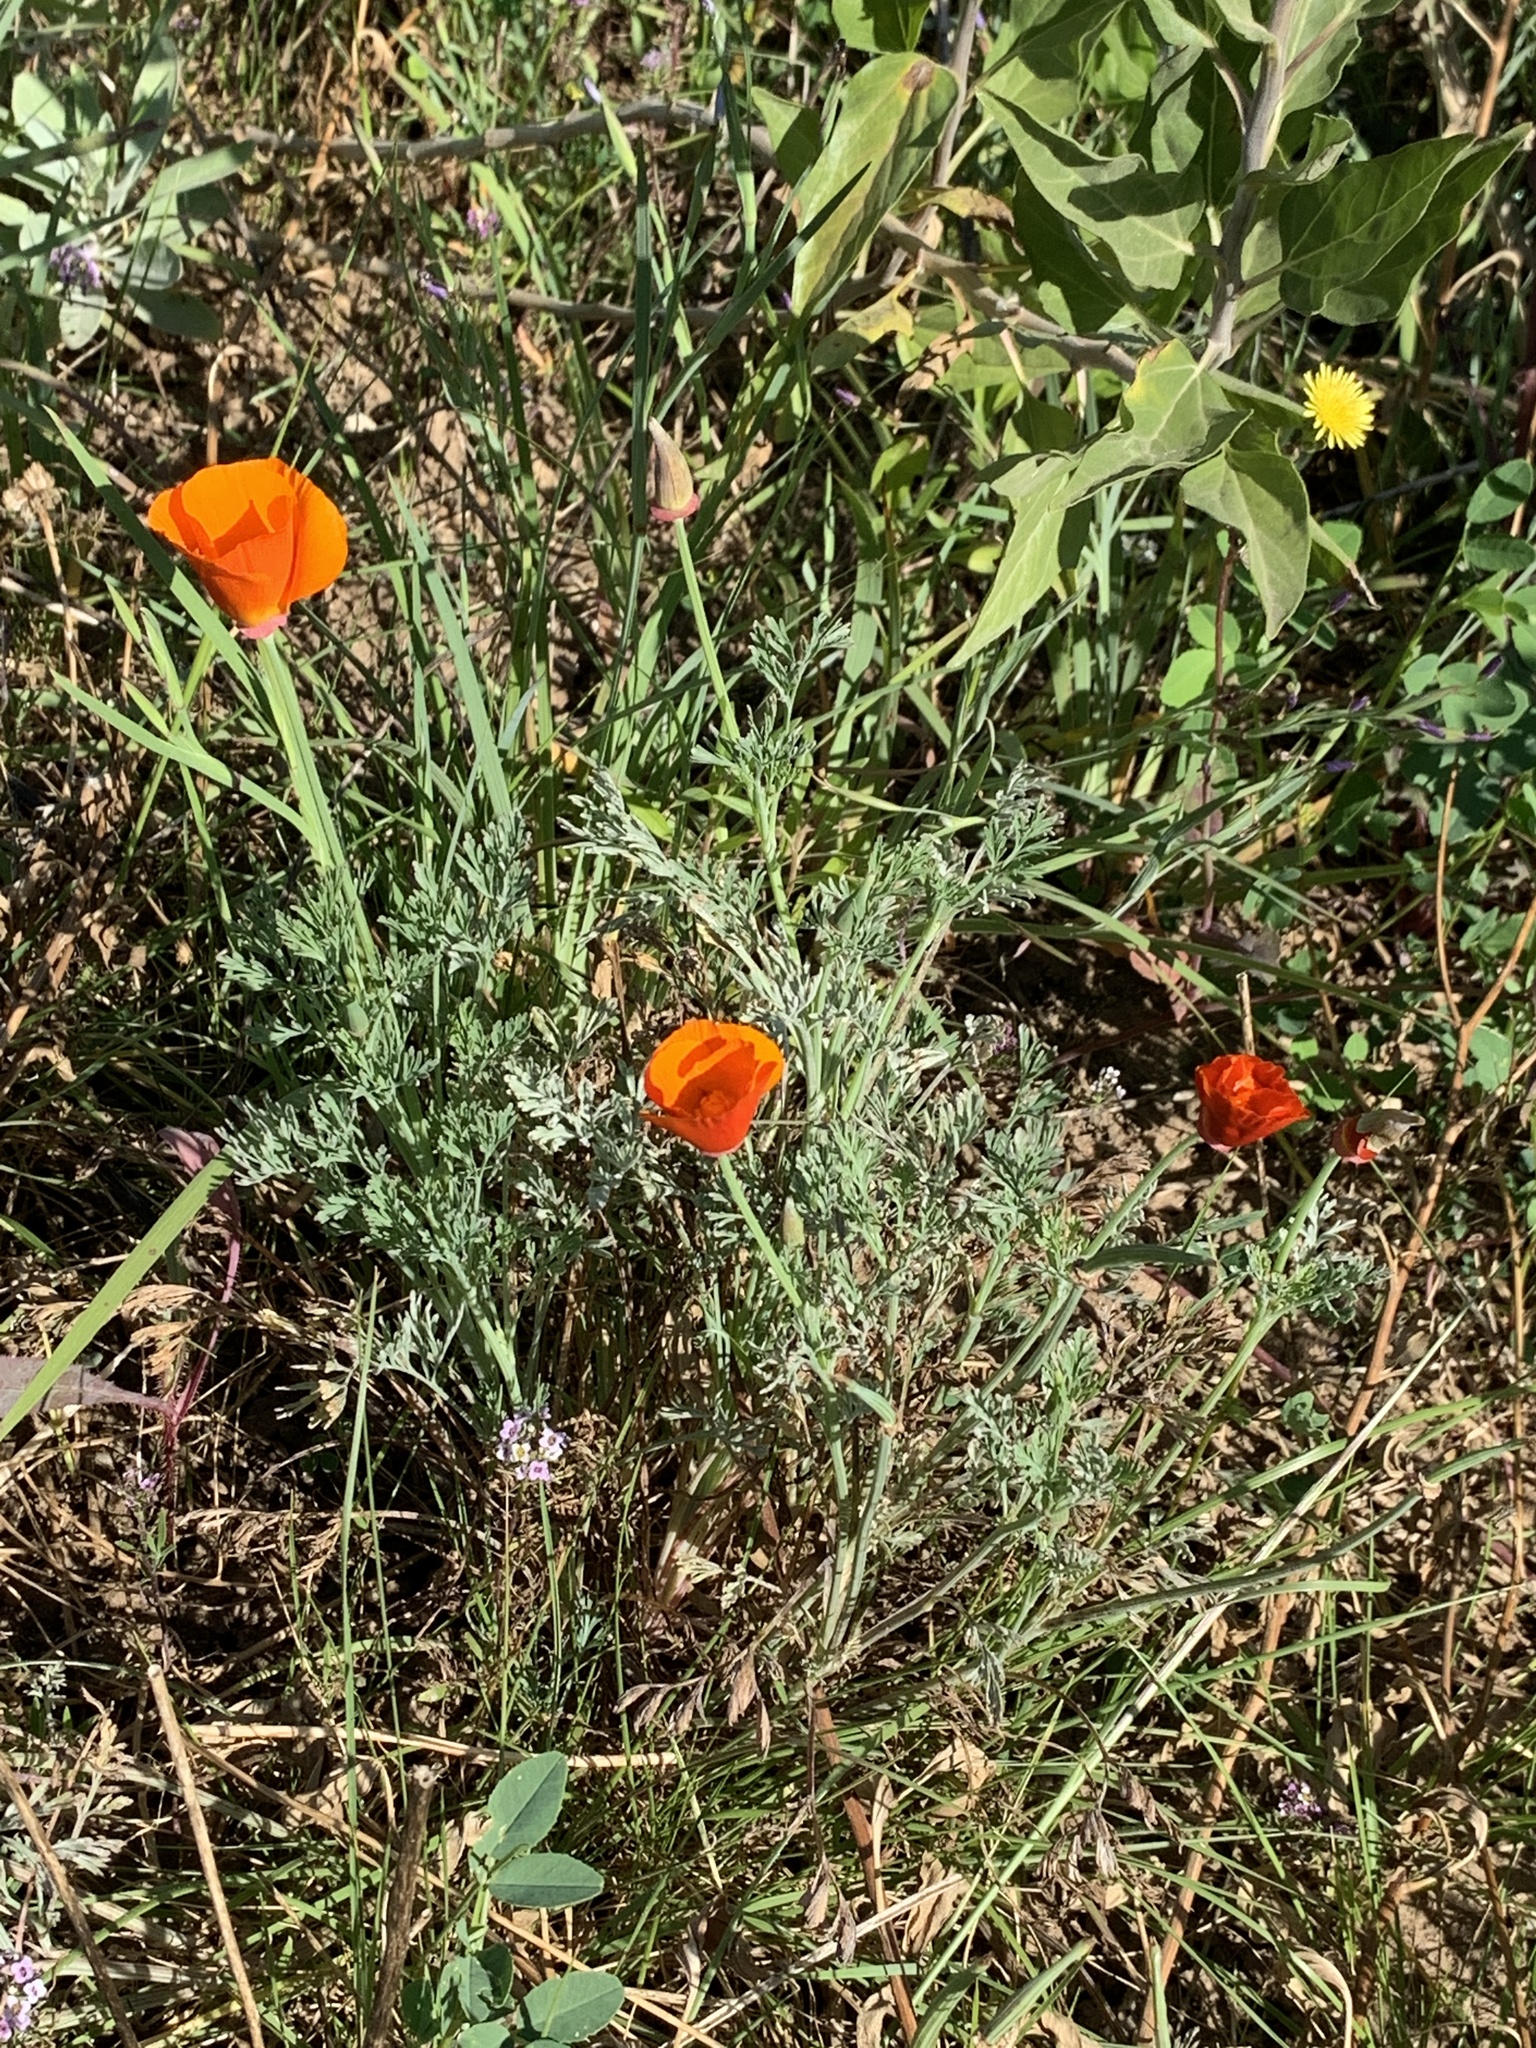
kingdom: Plantae
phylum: Tracheophyta
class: Magnoliopsida
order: Ranunculales
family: Papaveraceae
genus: Eschscholzia
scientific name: Eschscholzia californica
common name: California poppy
